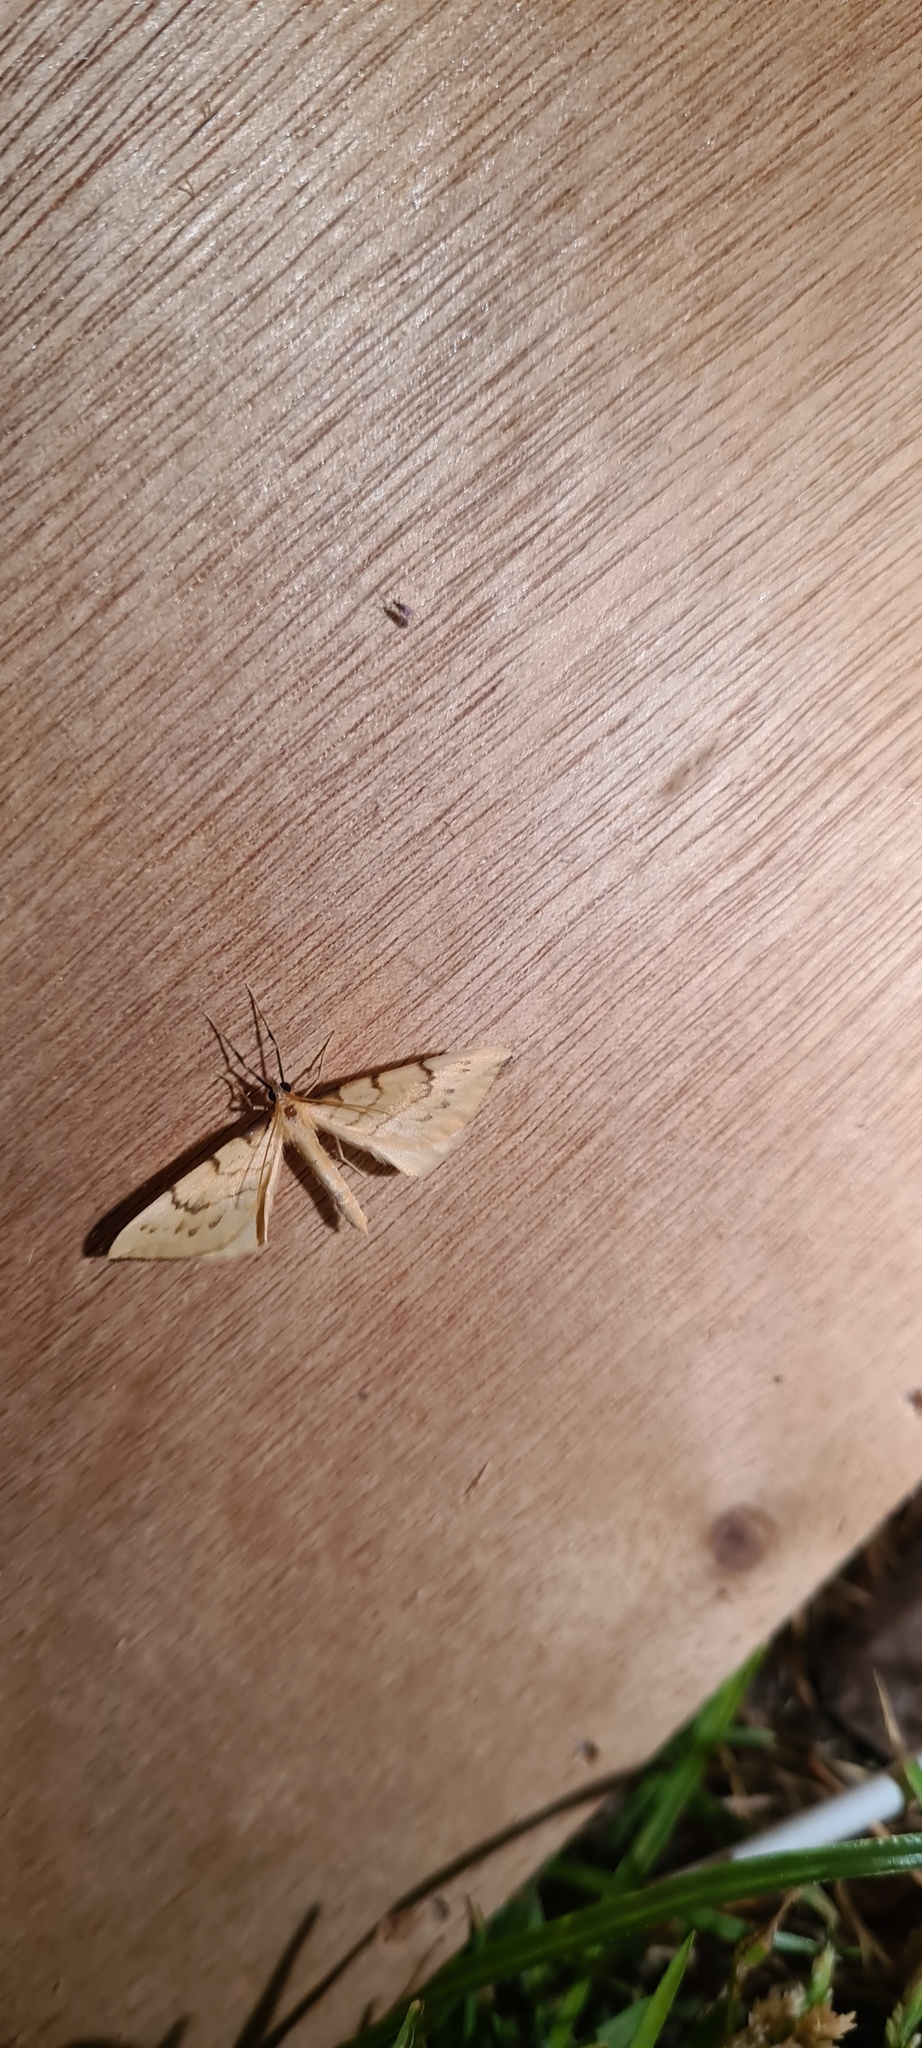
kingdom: Animalia
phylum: Arthropoda
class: Insecta
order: Lepidoptera
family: Geometridae
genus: Eulithis
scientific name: Eulithis pyraliata
